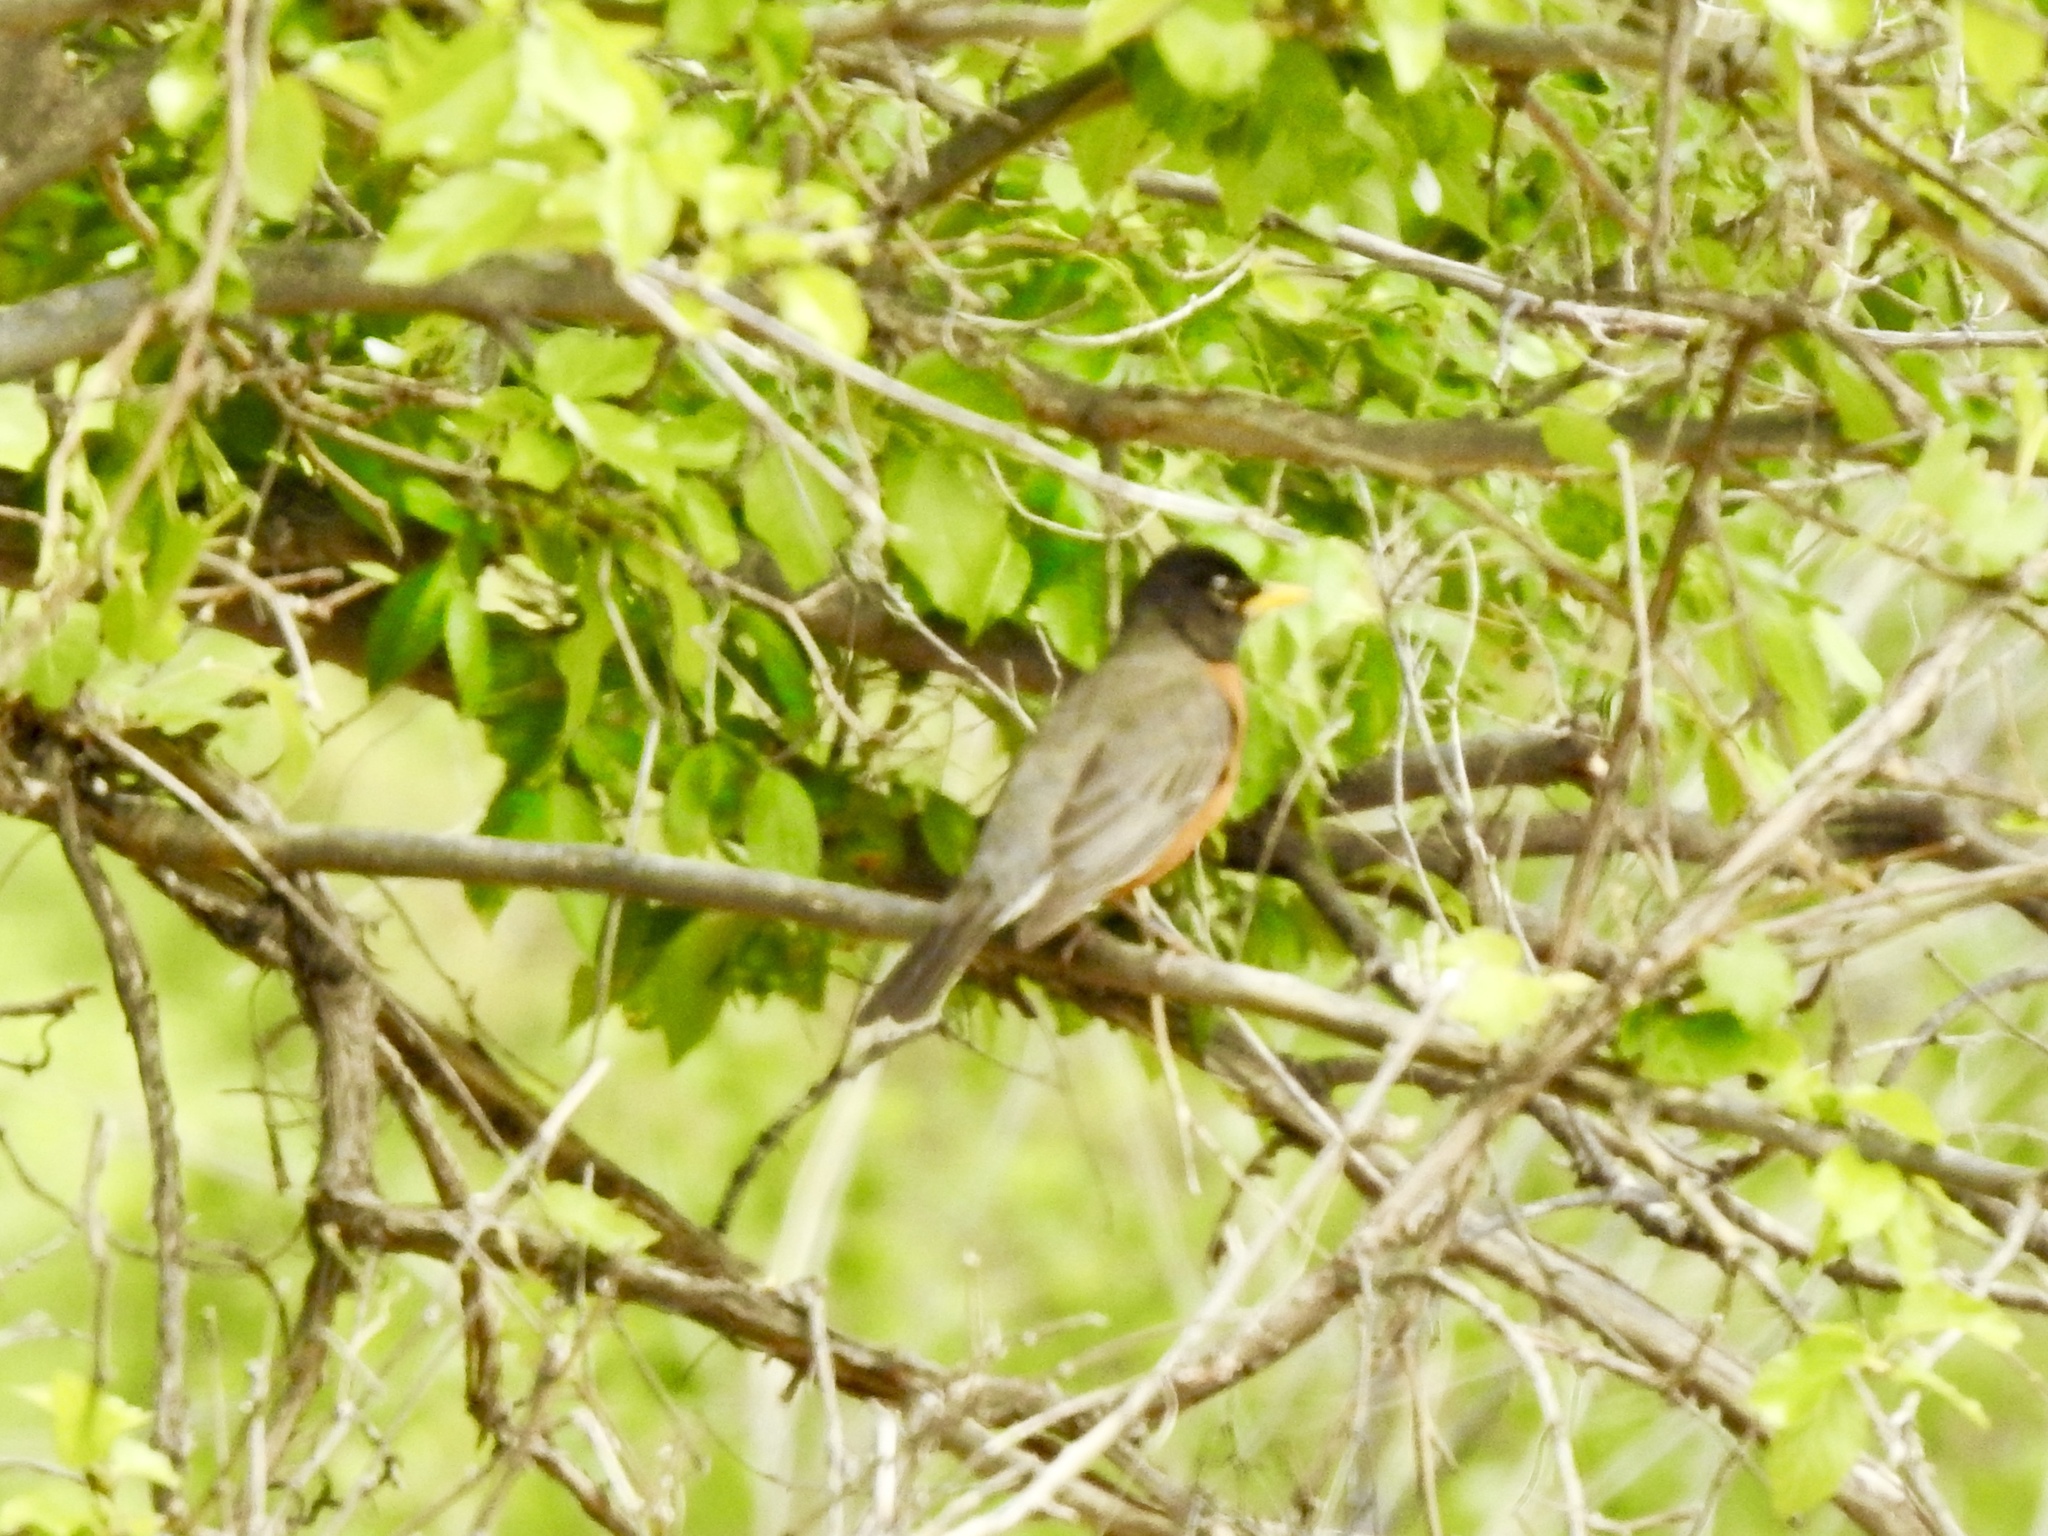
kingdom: Animalia
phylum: Chordata
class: Aves
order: Passeriformes
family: Turdidae
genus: Turdus
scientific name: Turdus migratorius
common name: American robin
